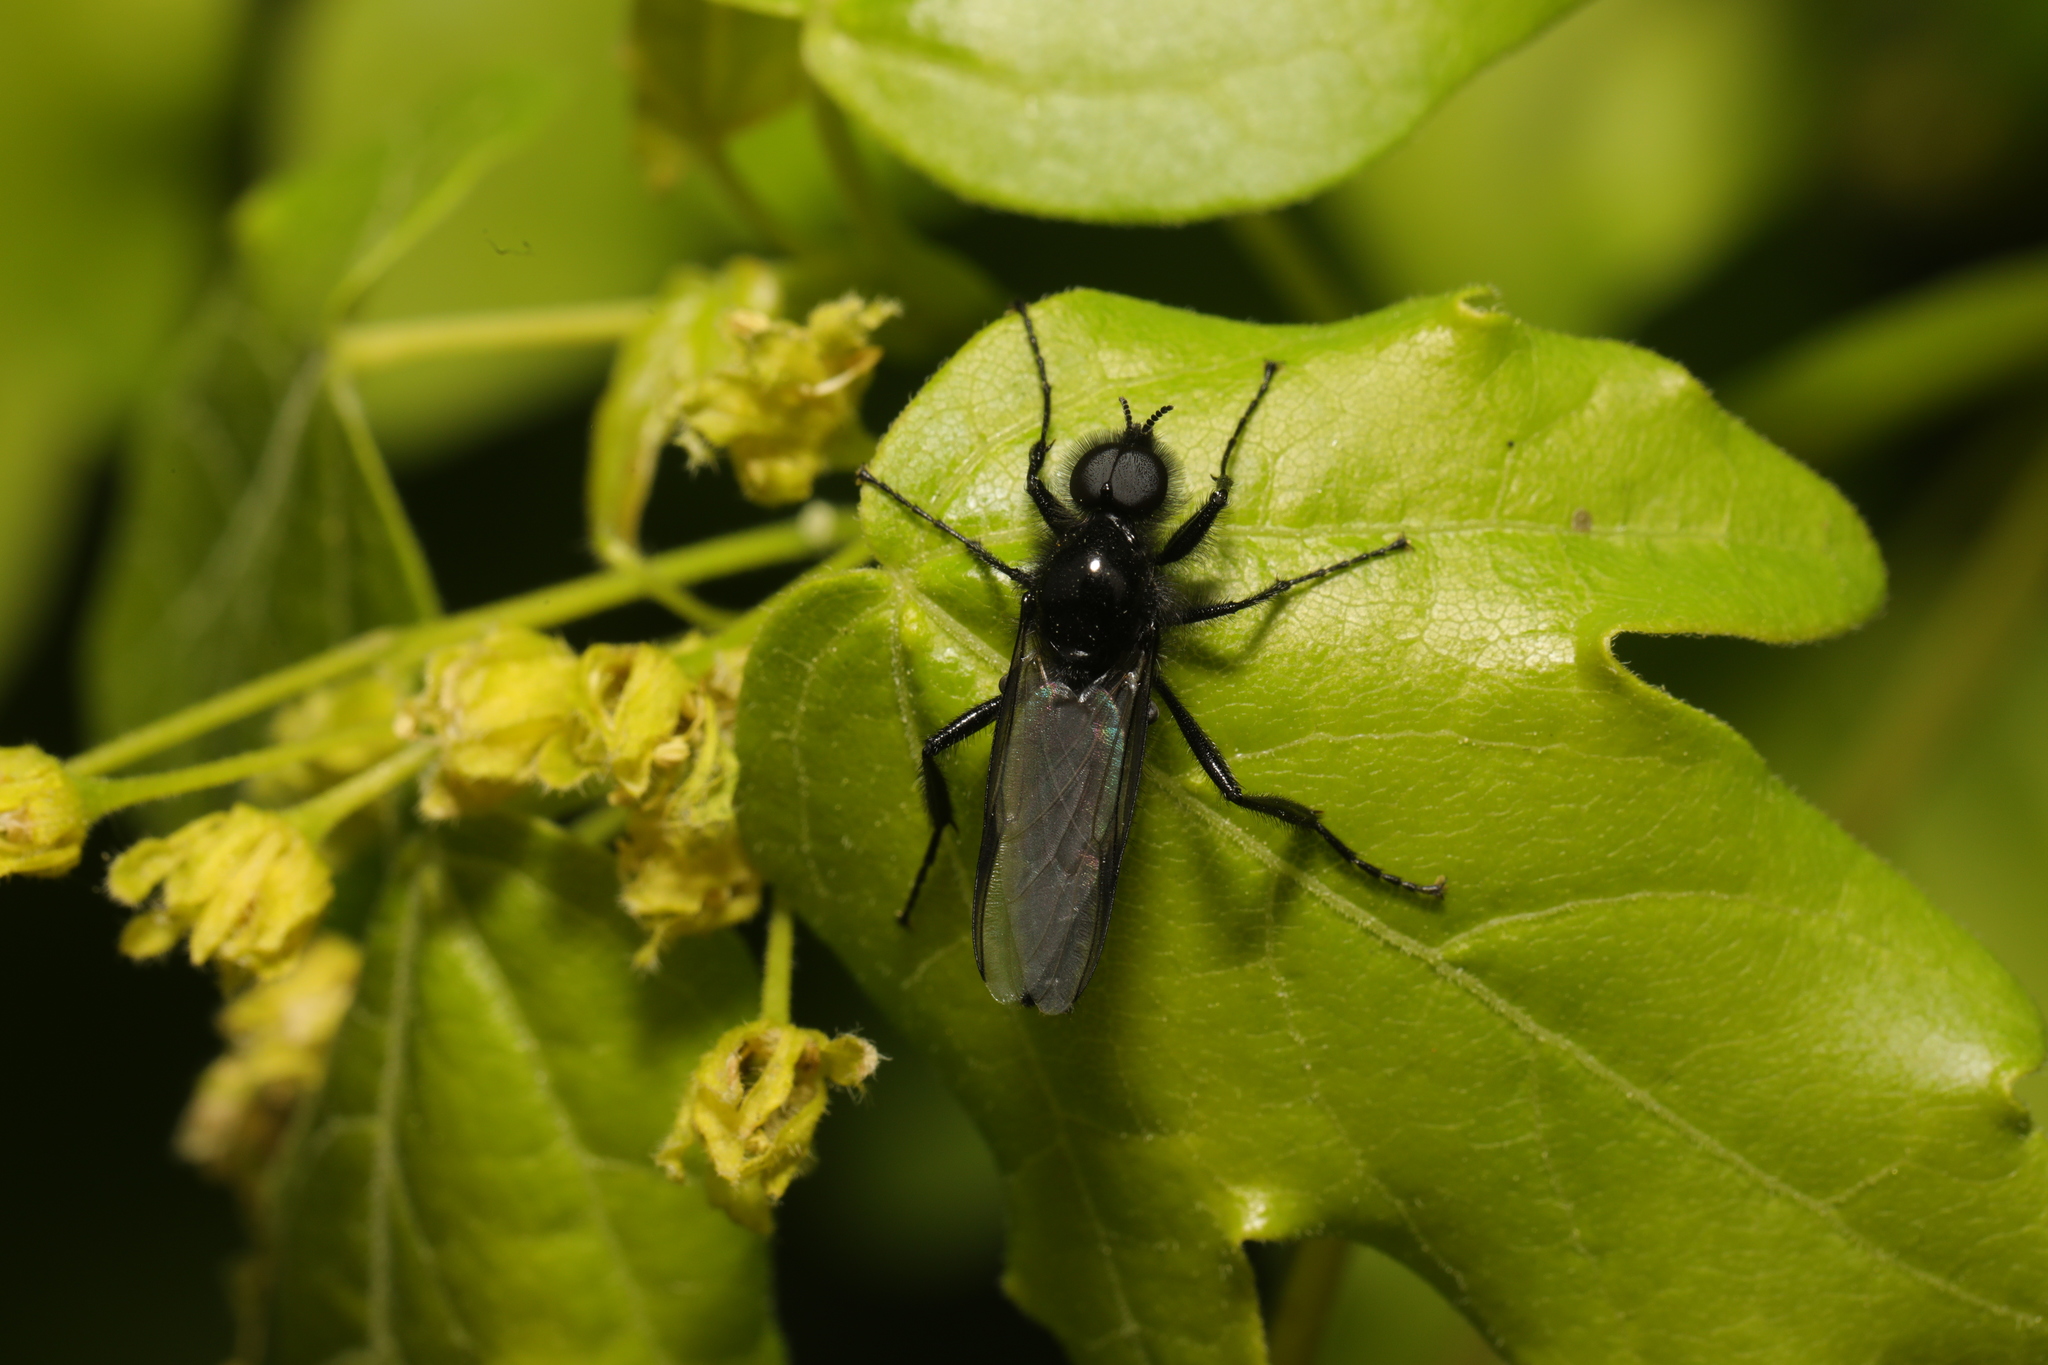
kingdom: Animalia
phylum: Arthropoda
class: Insecta
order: Diptera
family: Bibionidae
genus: Bibio
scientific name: Bibio marci
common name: St marks fly
